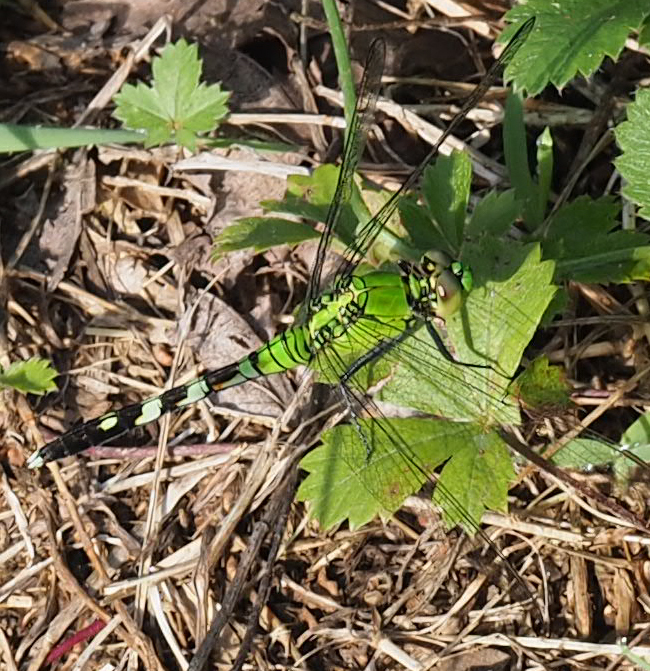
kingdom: Animalia
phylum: Arthropoda
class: Insecta
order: Odonata
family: Libellulidae
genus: Erythemis
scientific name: Erythemis simplicicollis
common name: Eastern pondhawk
